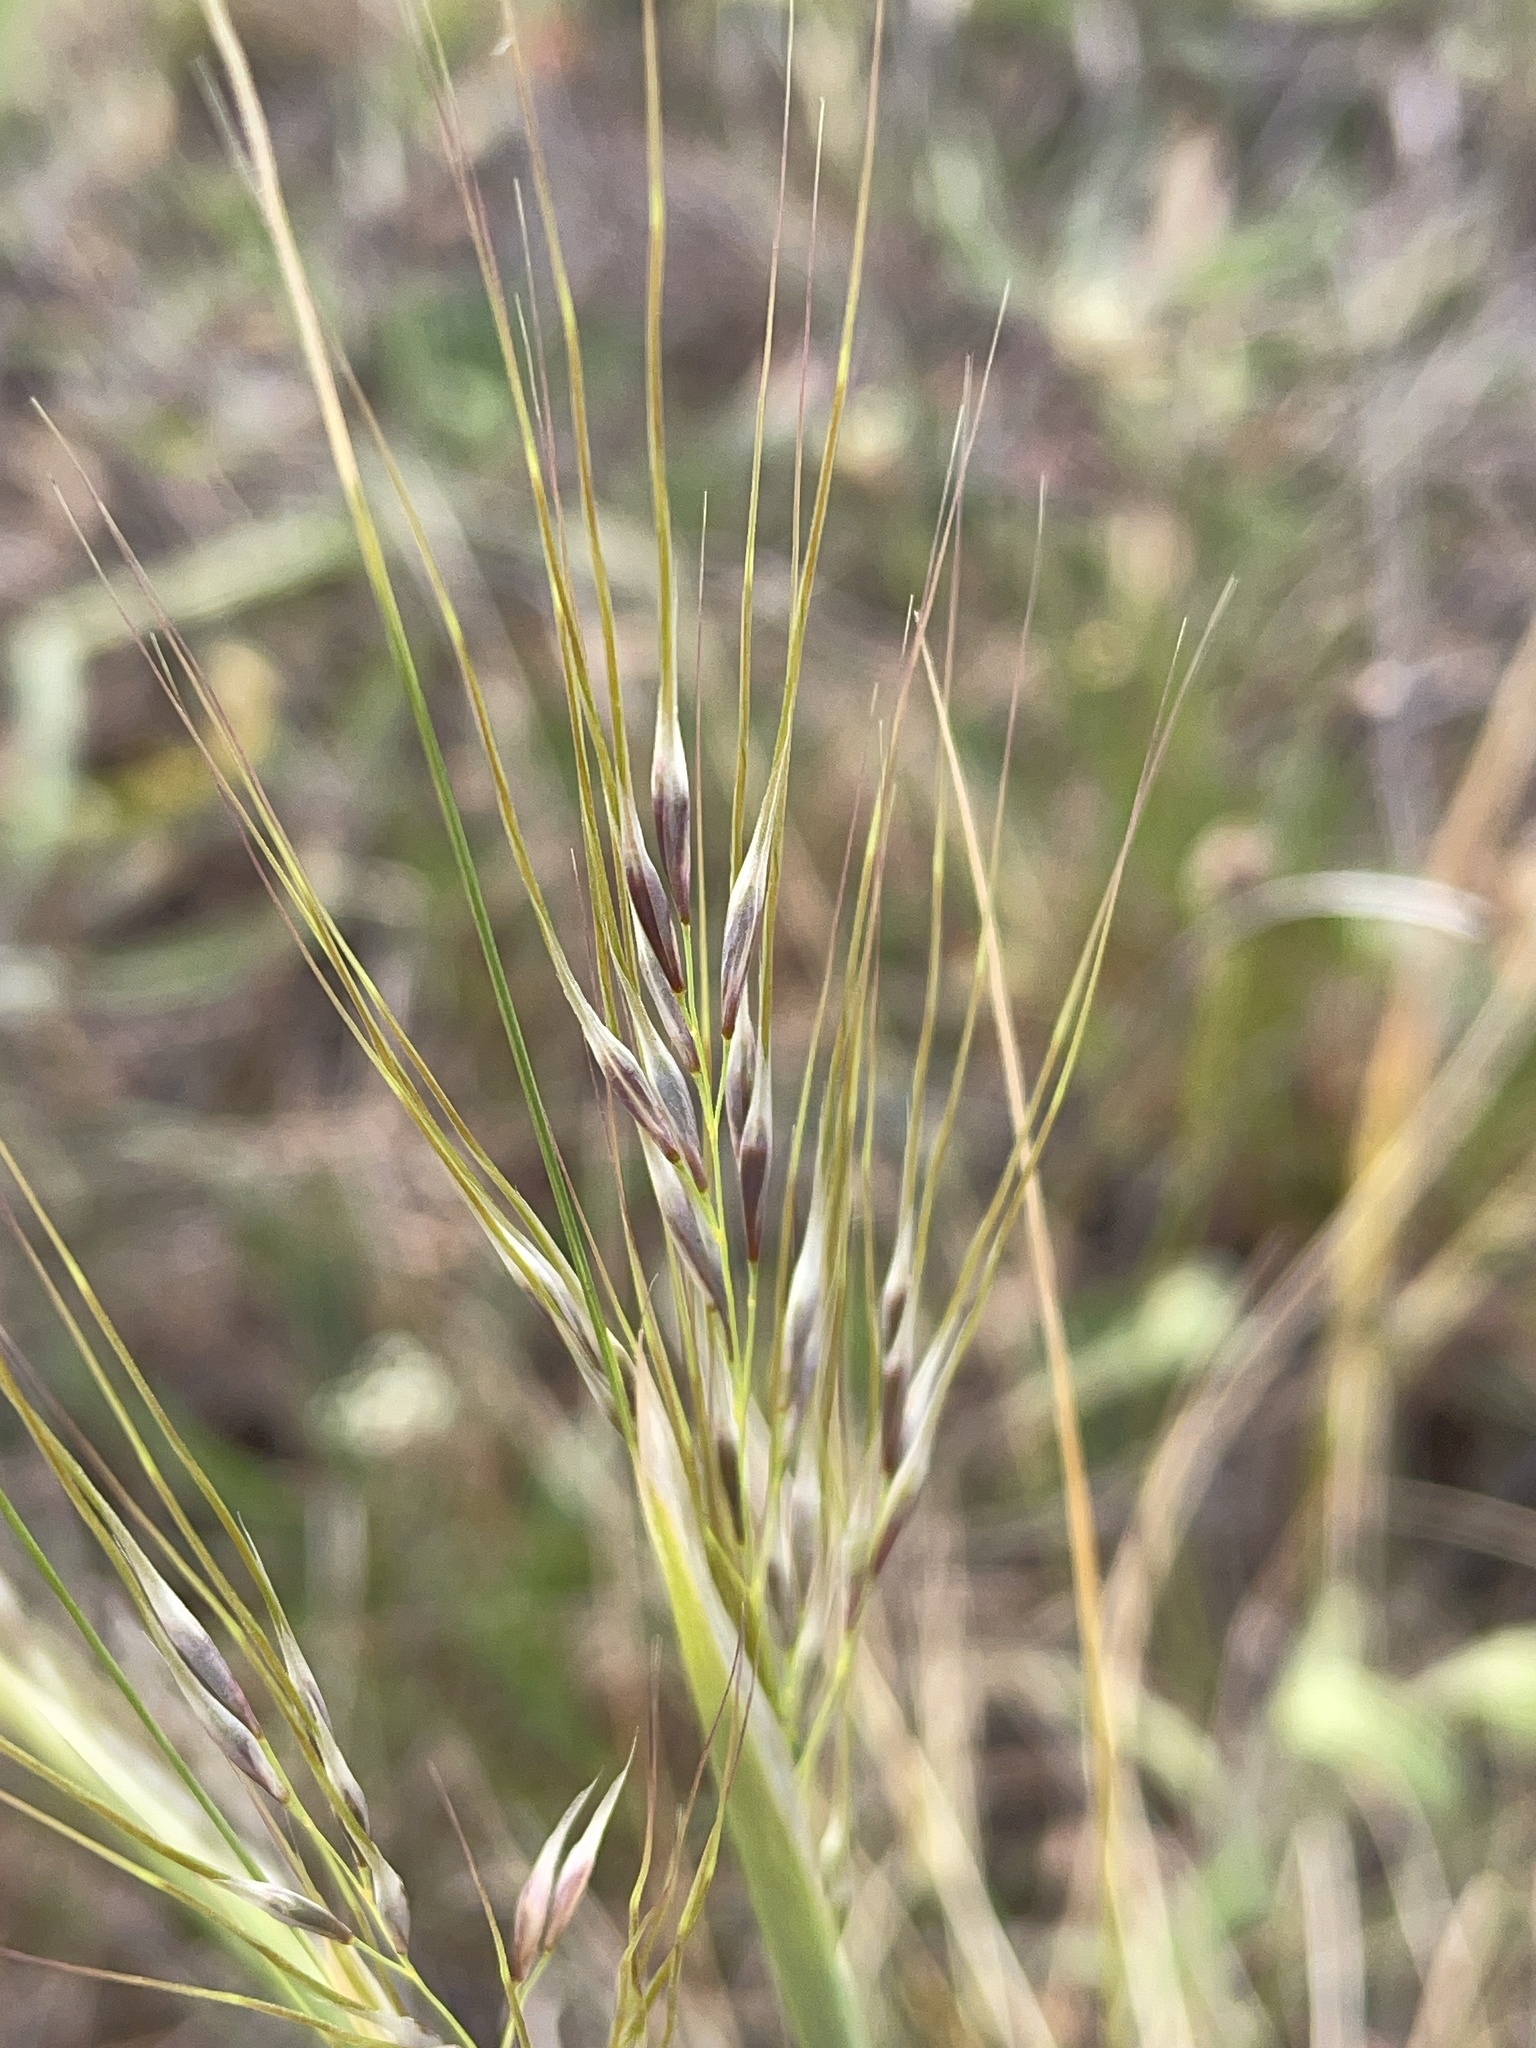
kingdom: Plantae
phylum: Tracheophyta
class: Liliopsida
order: Poales
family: Poaceae
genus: Nassella
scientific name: Nassella neesiana
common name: American needle-grass
